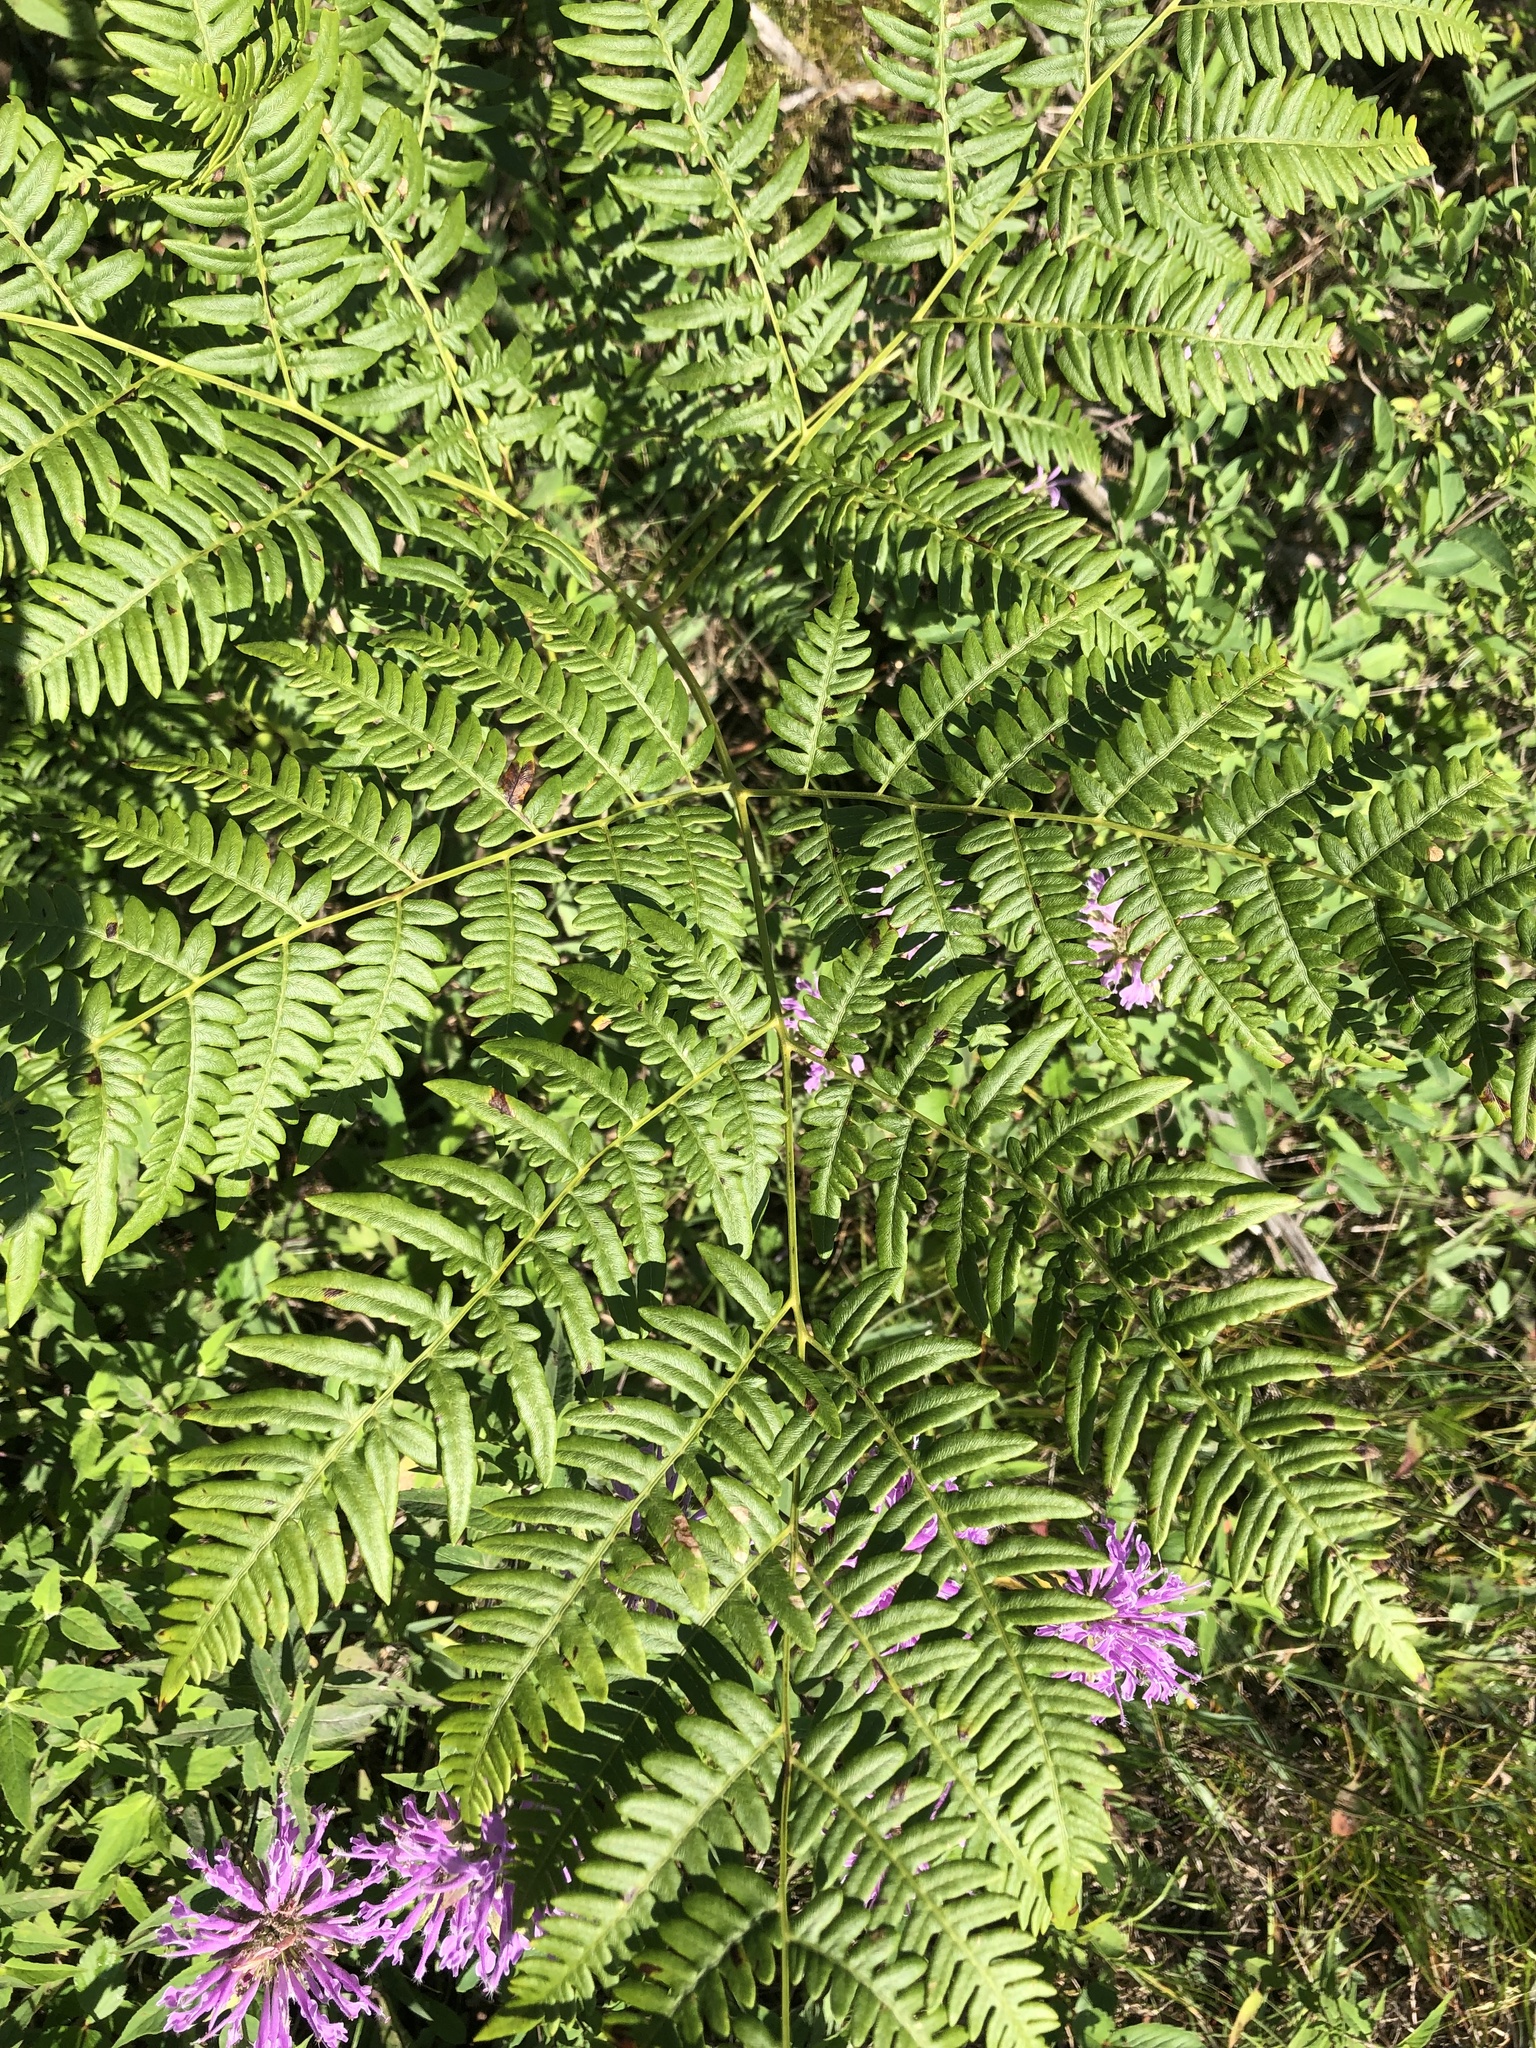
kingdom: Plantae
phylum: Tracheophyta
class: Polypodiopsida
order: Polypodiales
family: Dennstaedtiaceae
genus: Pteridium
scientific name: Pteridium aquilinum
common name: Bracken
